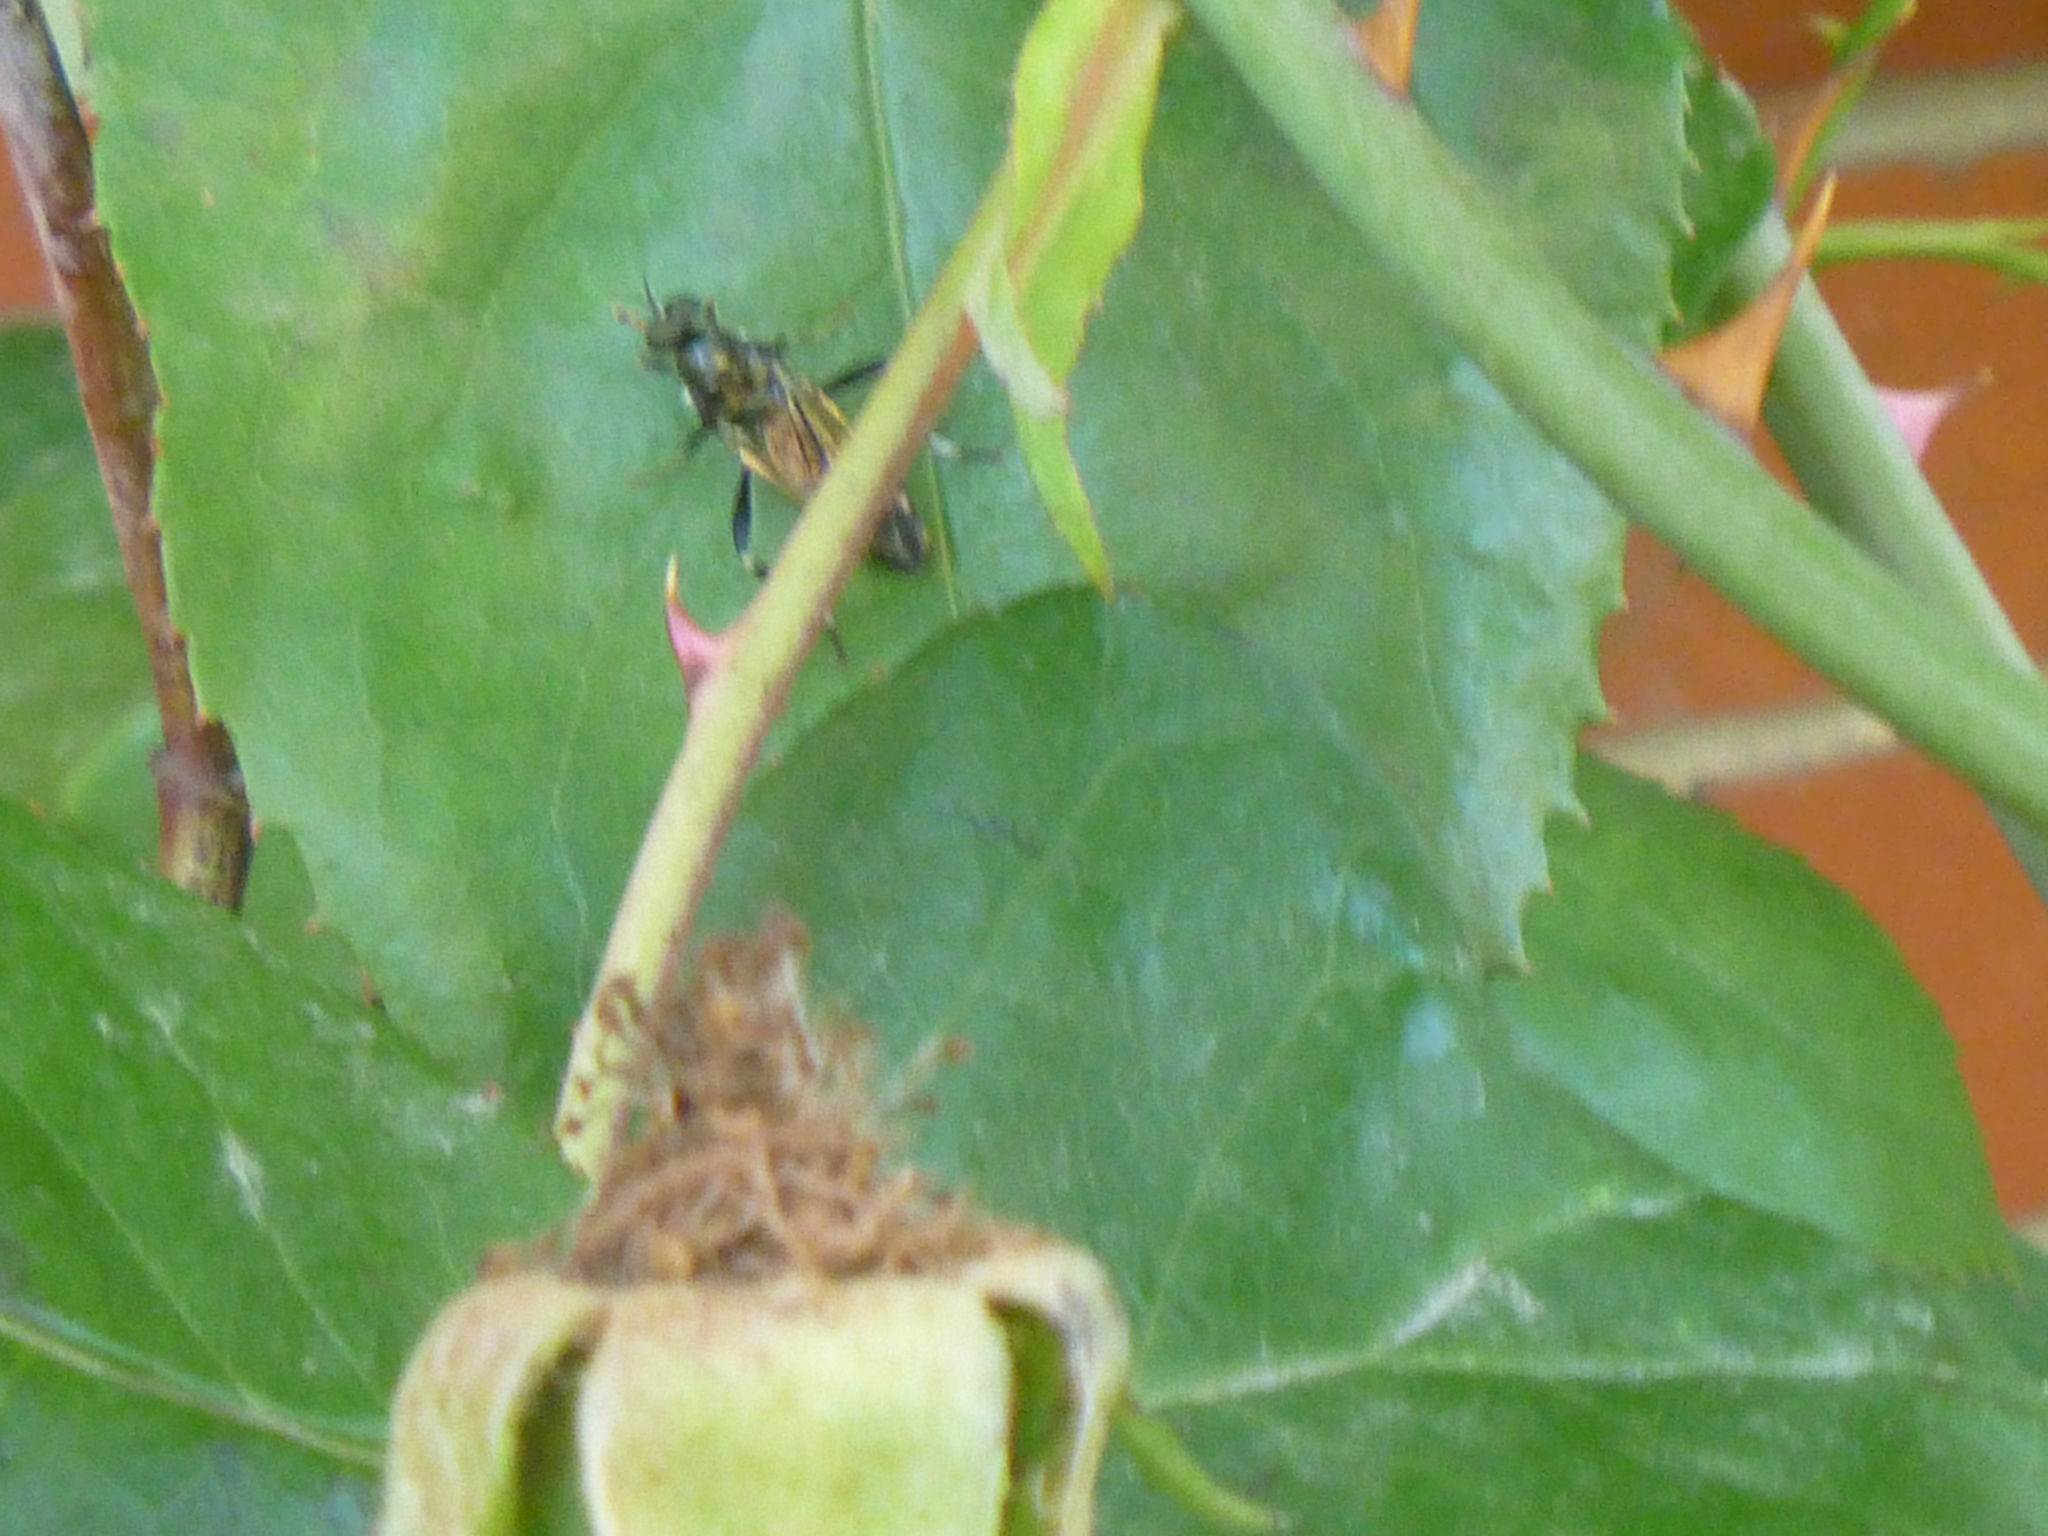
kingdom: Animalia
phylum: Arthropoda
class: Insecta
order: Diptera
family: Stratiomyidae
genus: Exaireta
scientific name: Exaireta spinigera
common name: Blue soldier fly
